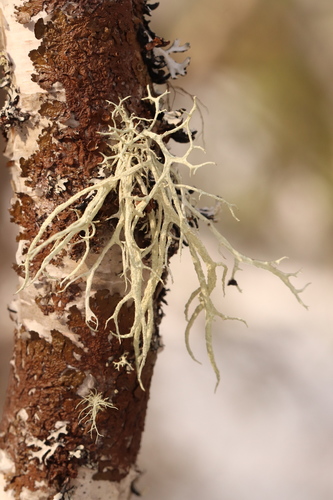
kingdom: Fungi
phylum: Ascomycota
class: Lecanoromycetes
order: Lecanorales
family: Parmeliaceae
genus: Evernia
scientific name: Evernia mesomorpha
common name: Boreal oak moss lichen
